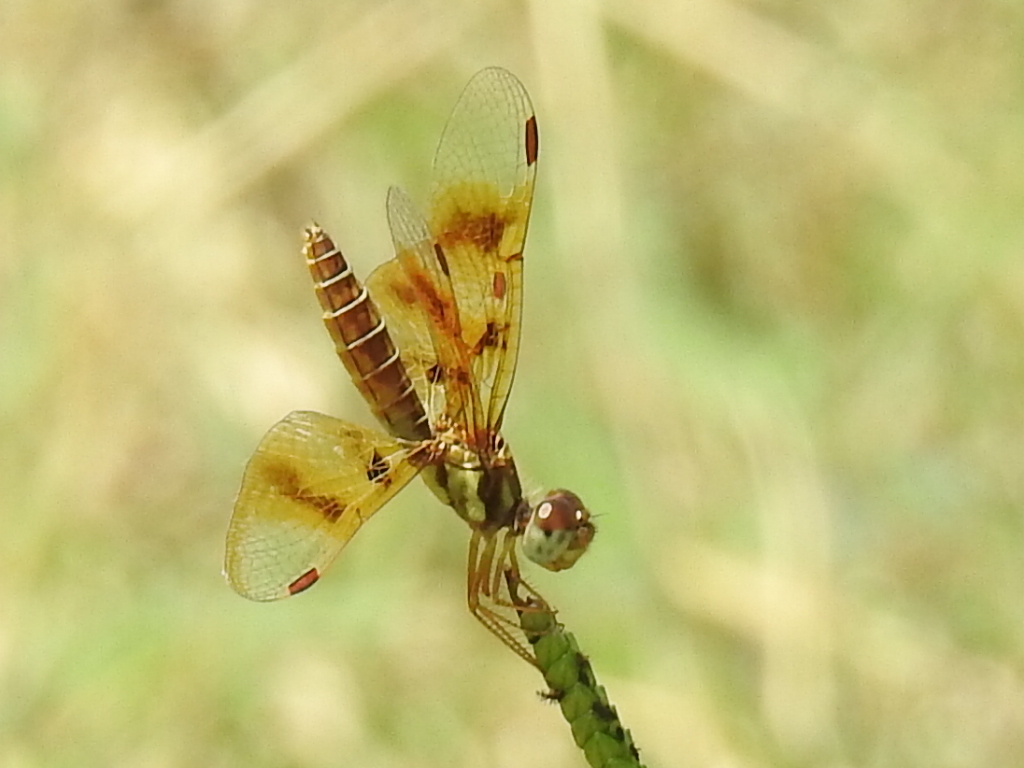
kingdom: Animalia
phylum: Arthropoda
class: Insecta
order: Odonata
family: Libellulidae
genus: Perithemis
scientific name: Perithemis tenera
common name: Eastern amberwing
